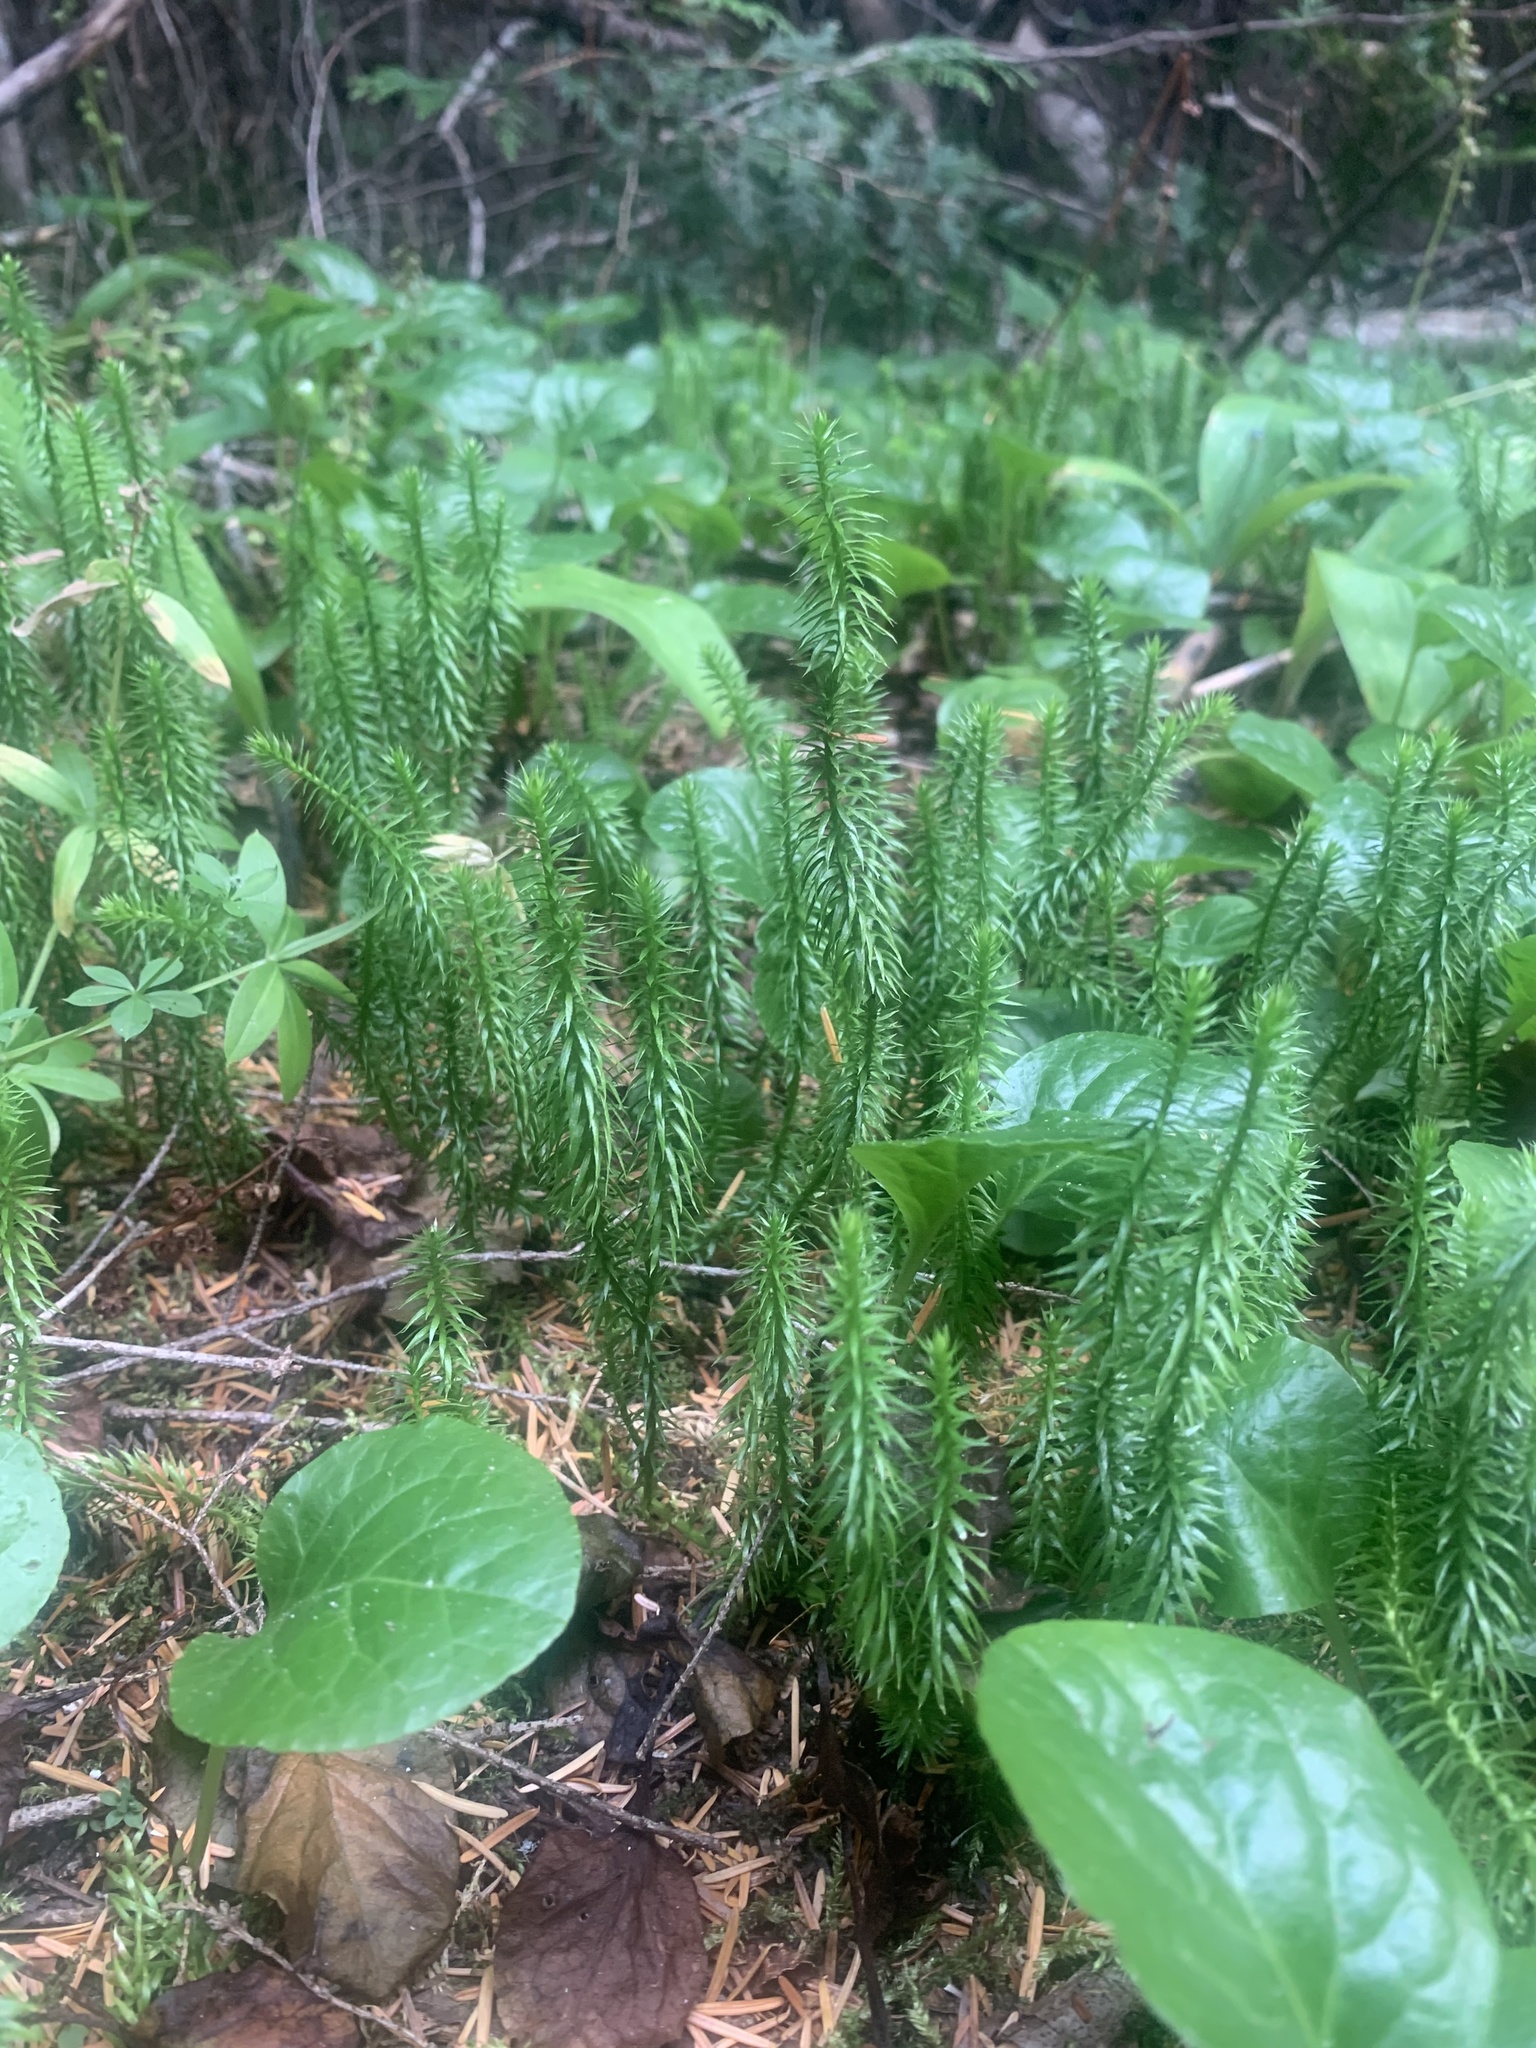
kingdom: Plantae
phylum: Tracheophyta
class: Lycopodiopsida
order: Lycopodiales
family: Lycopodiaceae
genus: Spinulum
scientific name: Spinulum annotinum
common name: Interrupted club-moss
